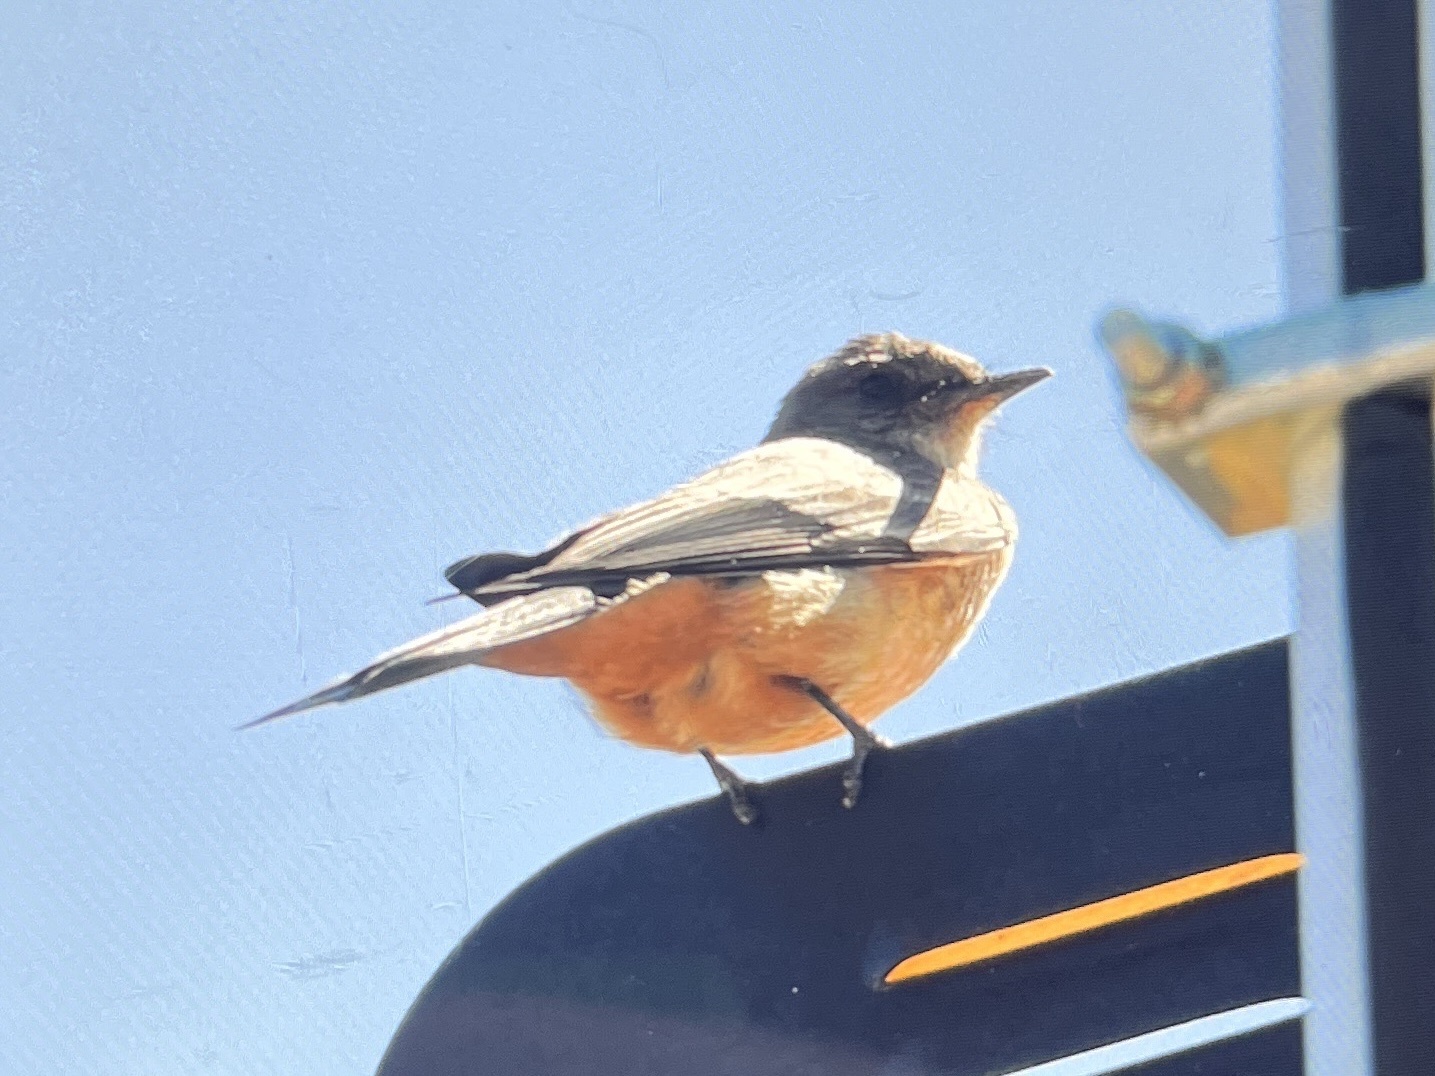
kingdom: Animalia
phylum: Chordata
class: Aves
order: Passeriformes
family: Tyrannidae
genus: Sayornis
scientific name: Sayornis saya
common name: Say's phoebe
